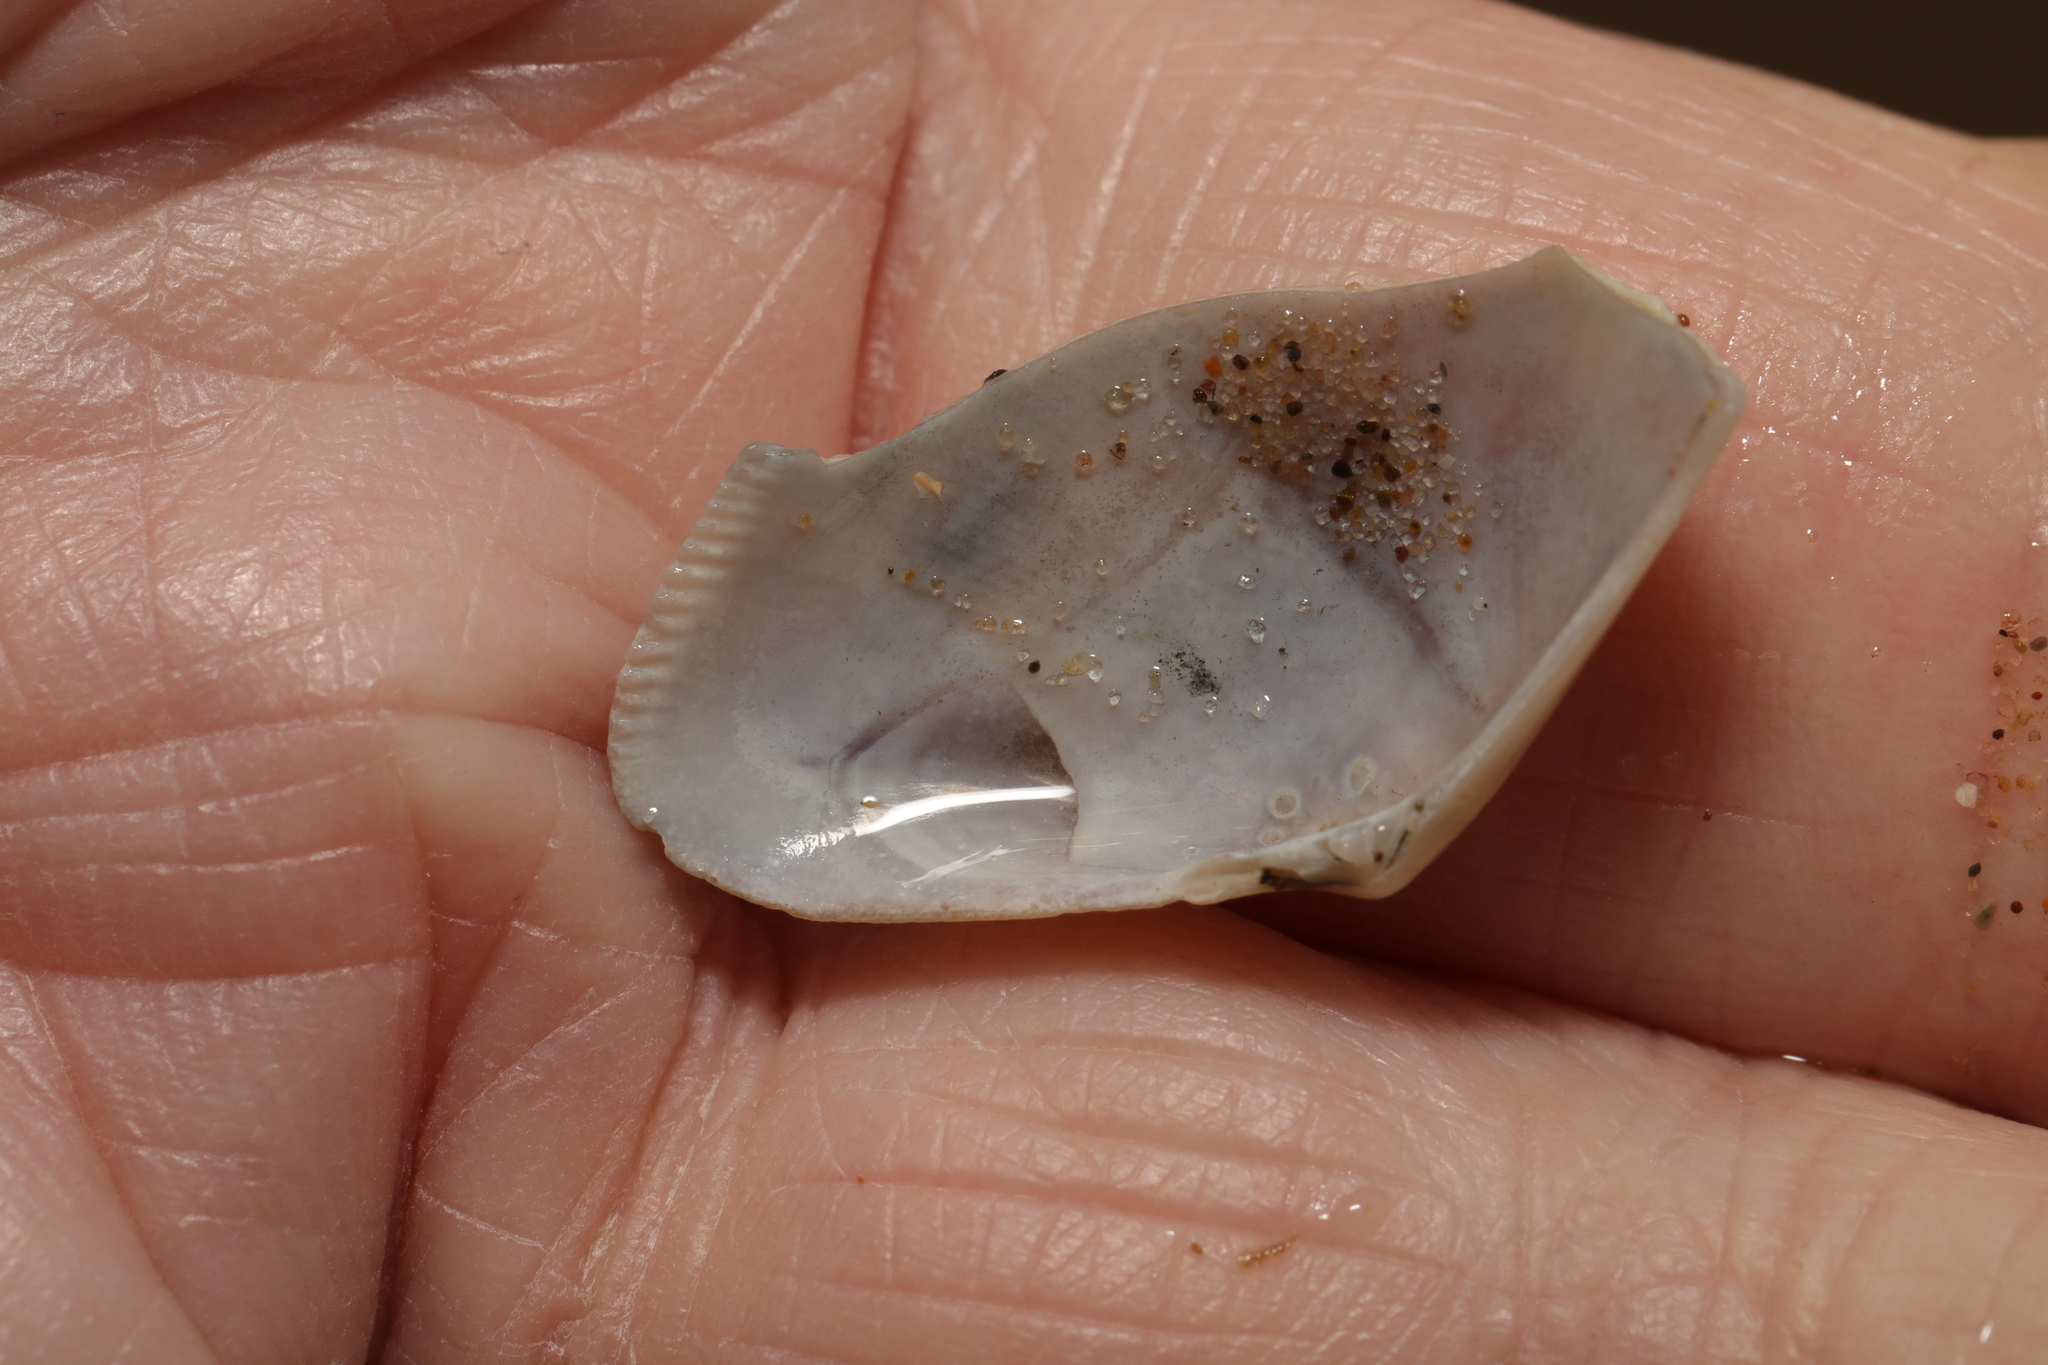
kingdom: Animalia
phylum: Mollusca
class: Bivalvia
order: Cardiida
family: Donacidae
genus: Donax
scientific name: Donax vittatus
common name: Banded wedge-shell
